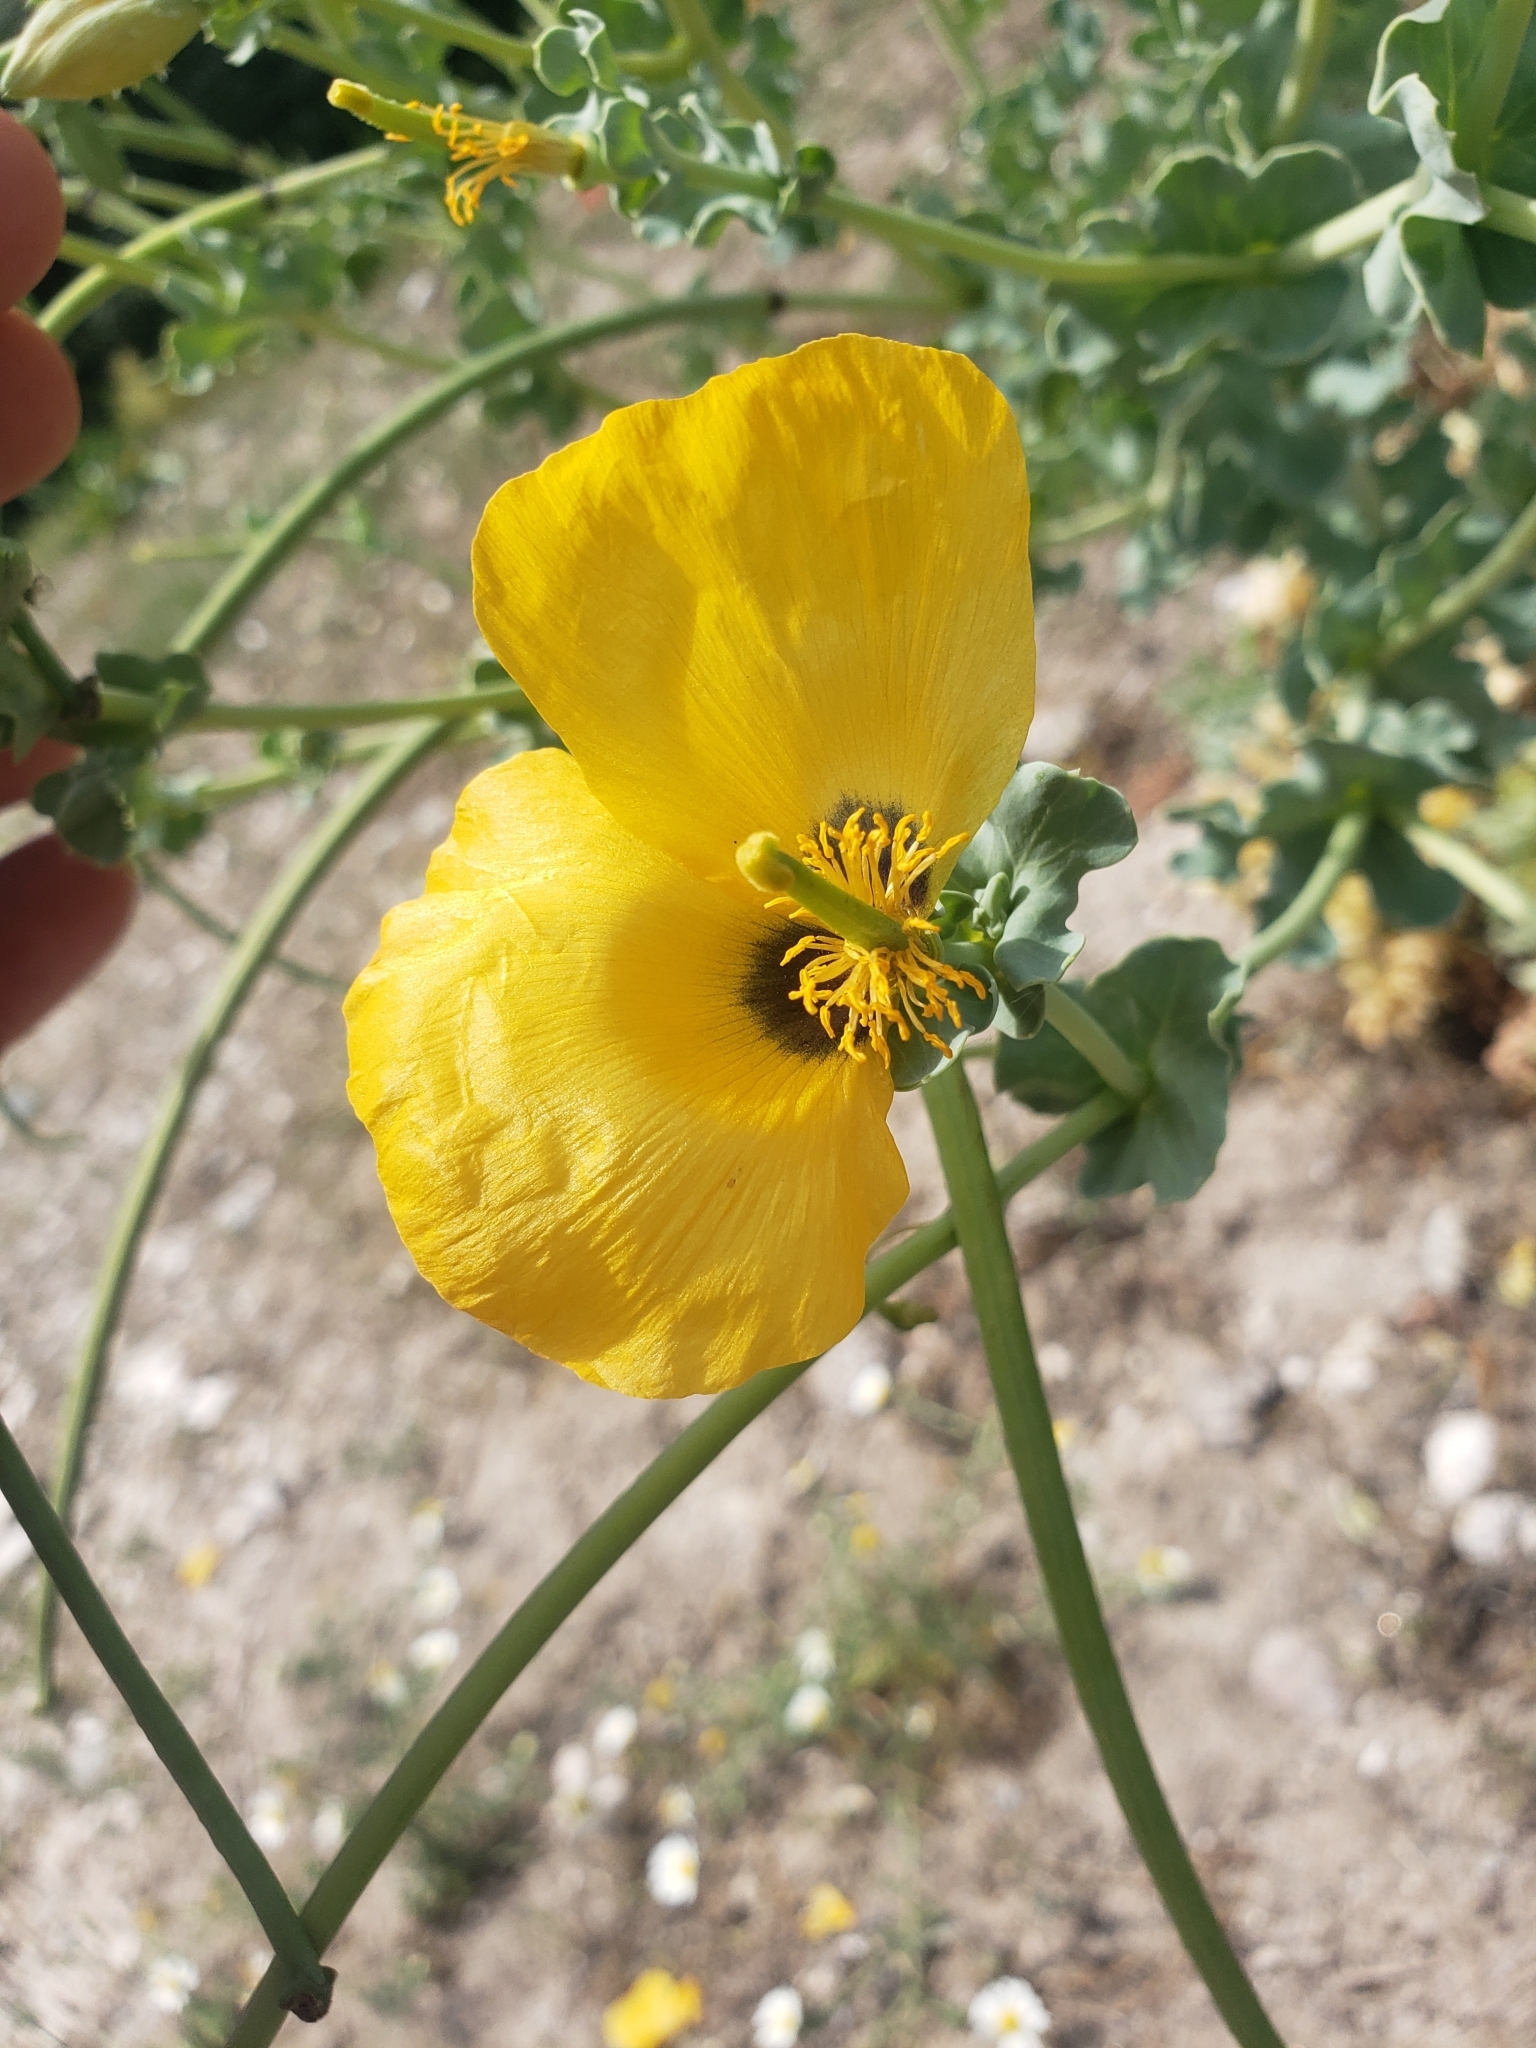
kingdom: Plantae
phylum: Tracheophyta
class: Magnoliopsida
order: Ranunculales
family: Papaveraceae
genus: Glaucium
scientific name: Glaucium flavum
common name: Yellow horned-poppy
